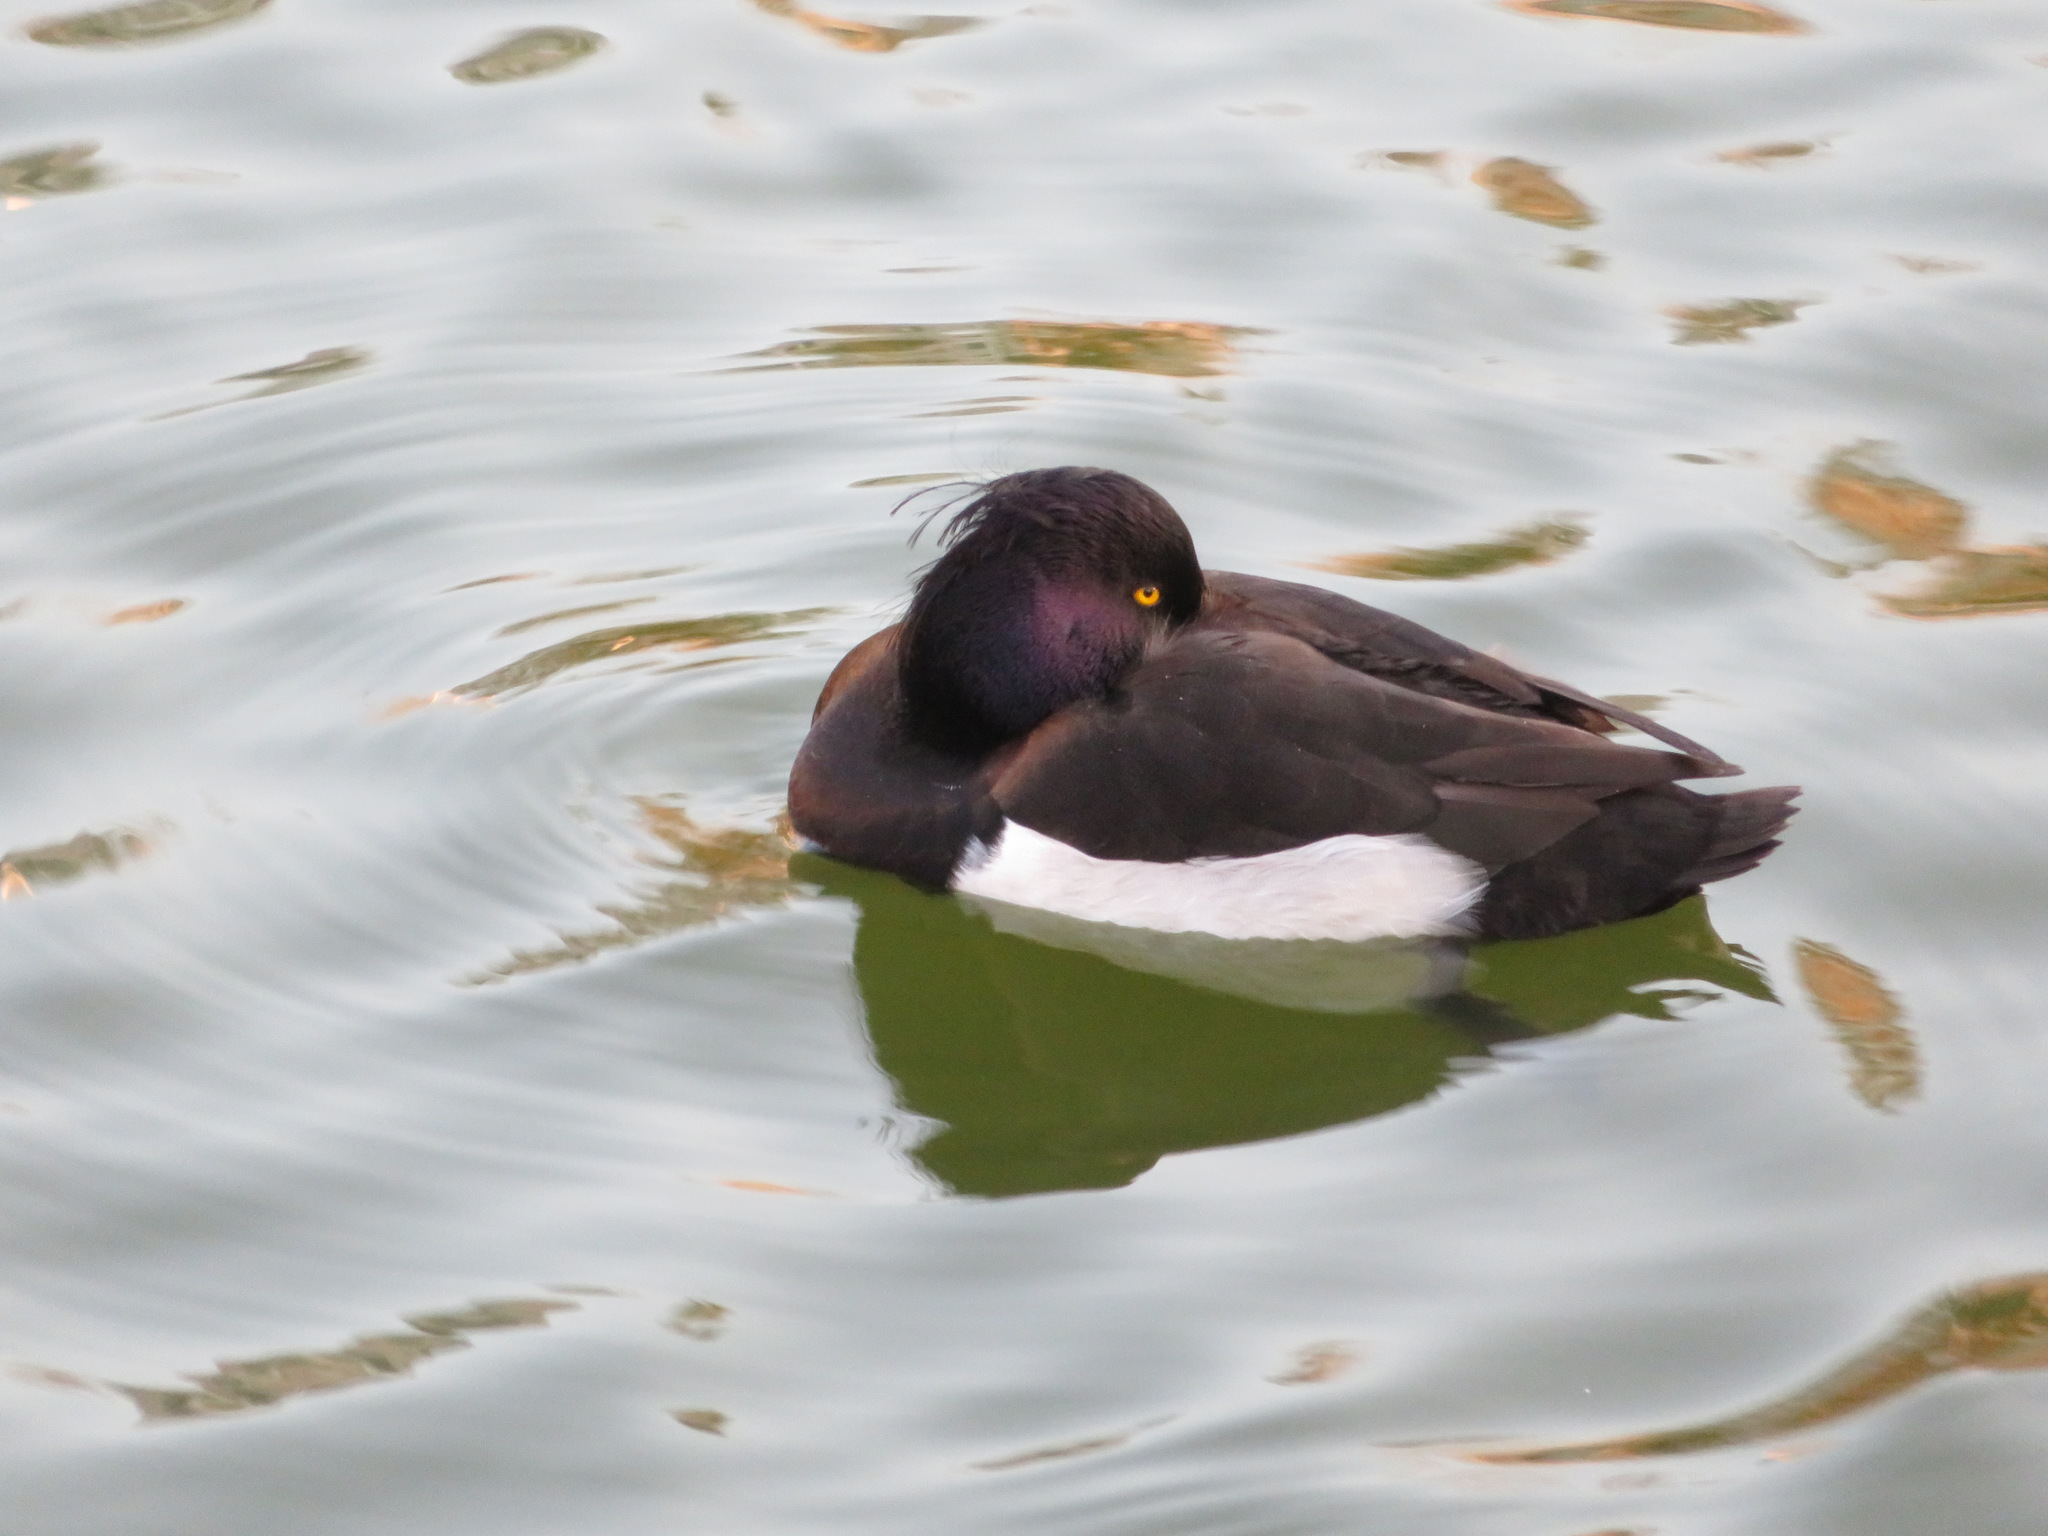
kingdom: Animalia
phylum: Chordata
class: Aves
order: Anseriformes
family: Anatidae
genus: Aythya
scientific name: Aythya fuligula
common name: Tufted duck
